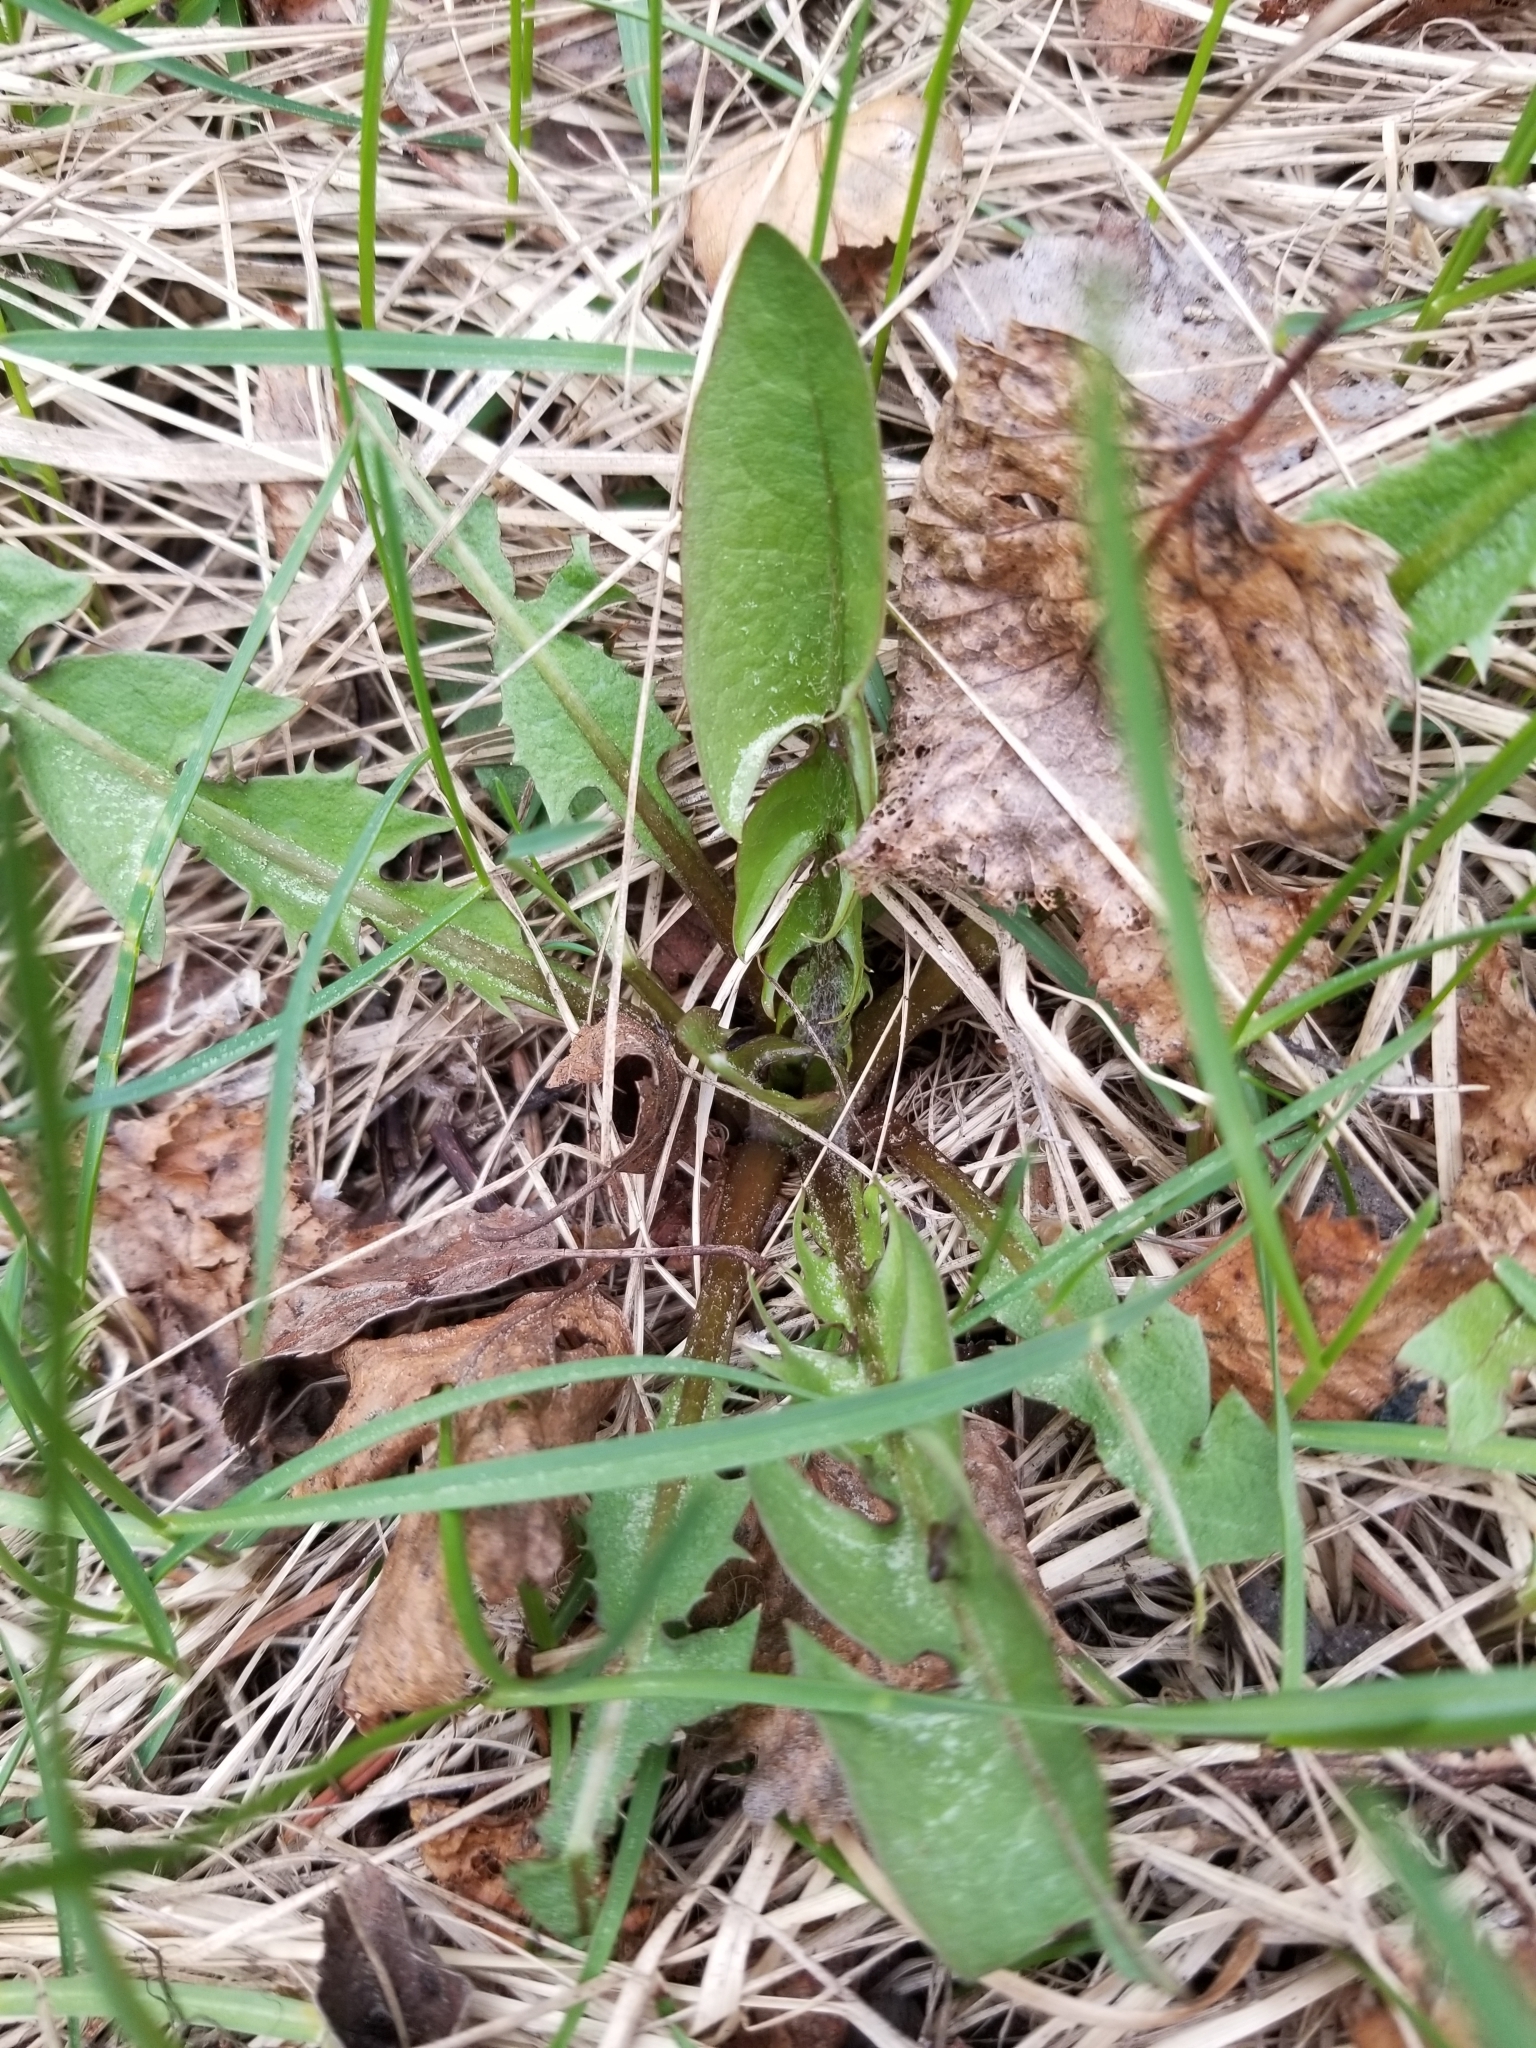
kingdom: Plantae
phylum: Tracheophyta
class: Magnoliopsida
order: Asterales
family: Asteraceae
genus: Taraxacum
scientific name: Taraxacum officinale
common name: Common dandelion
